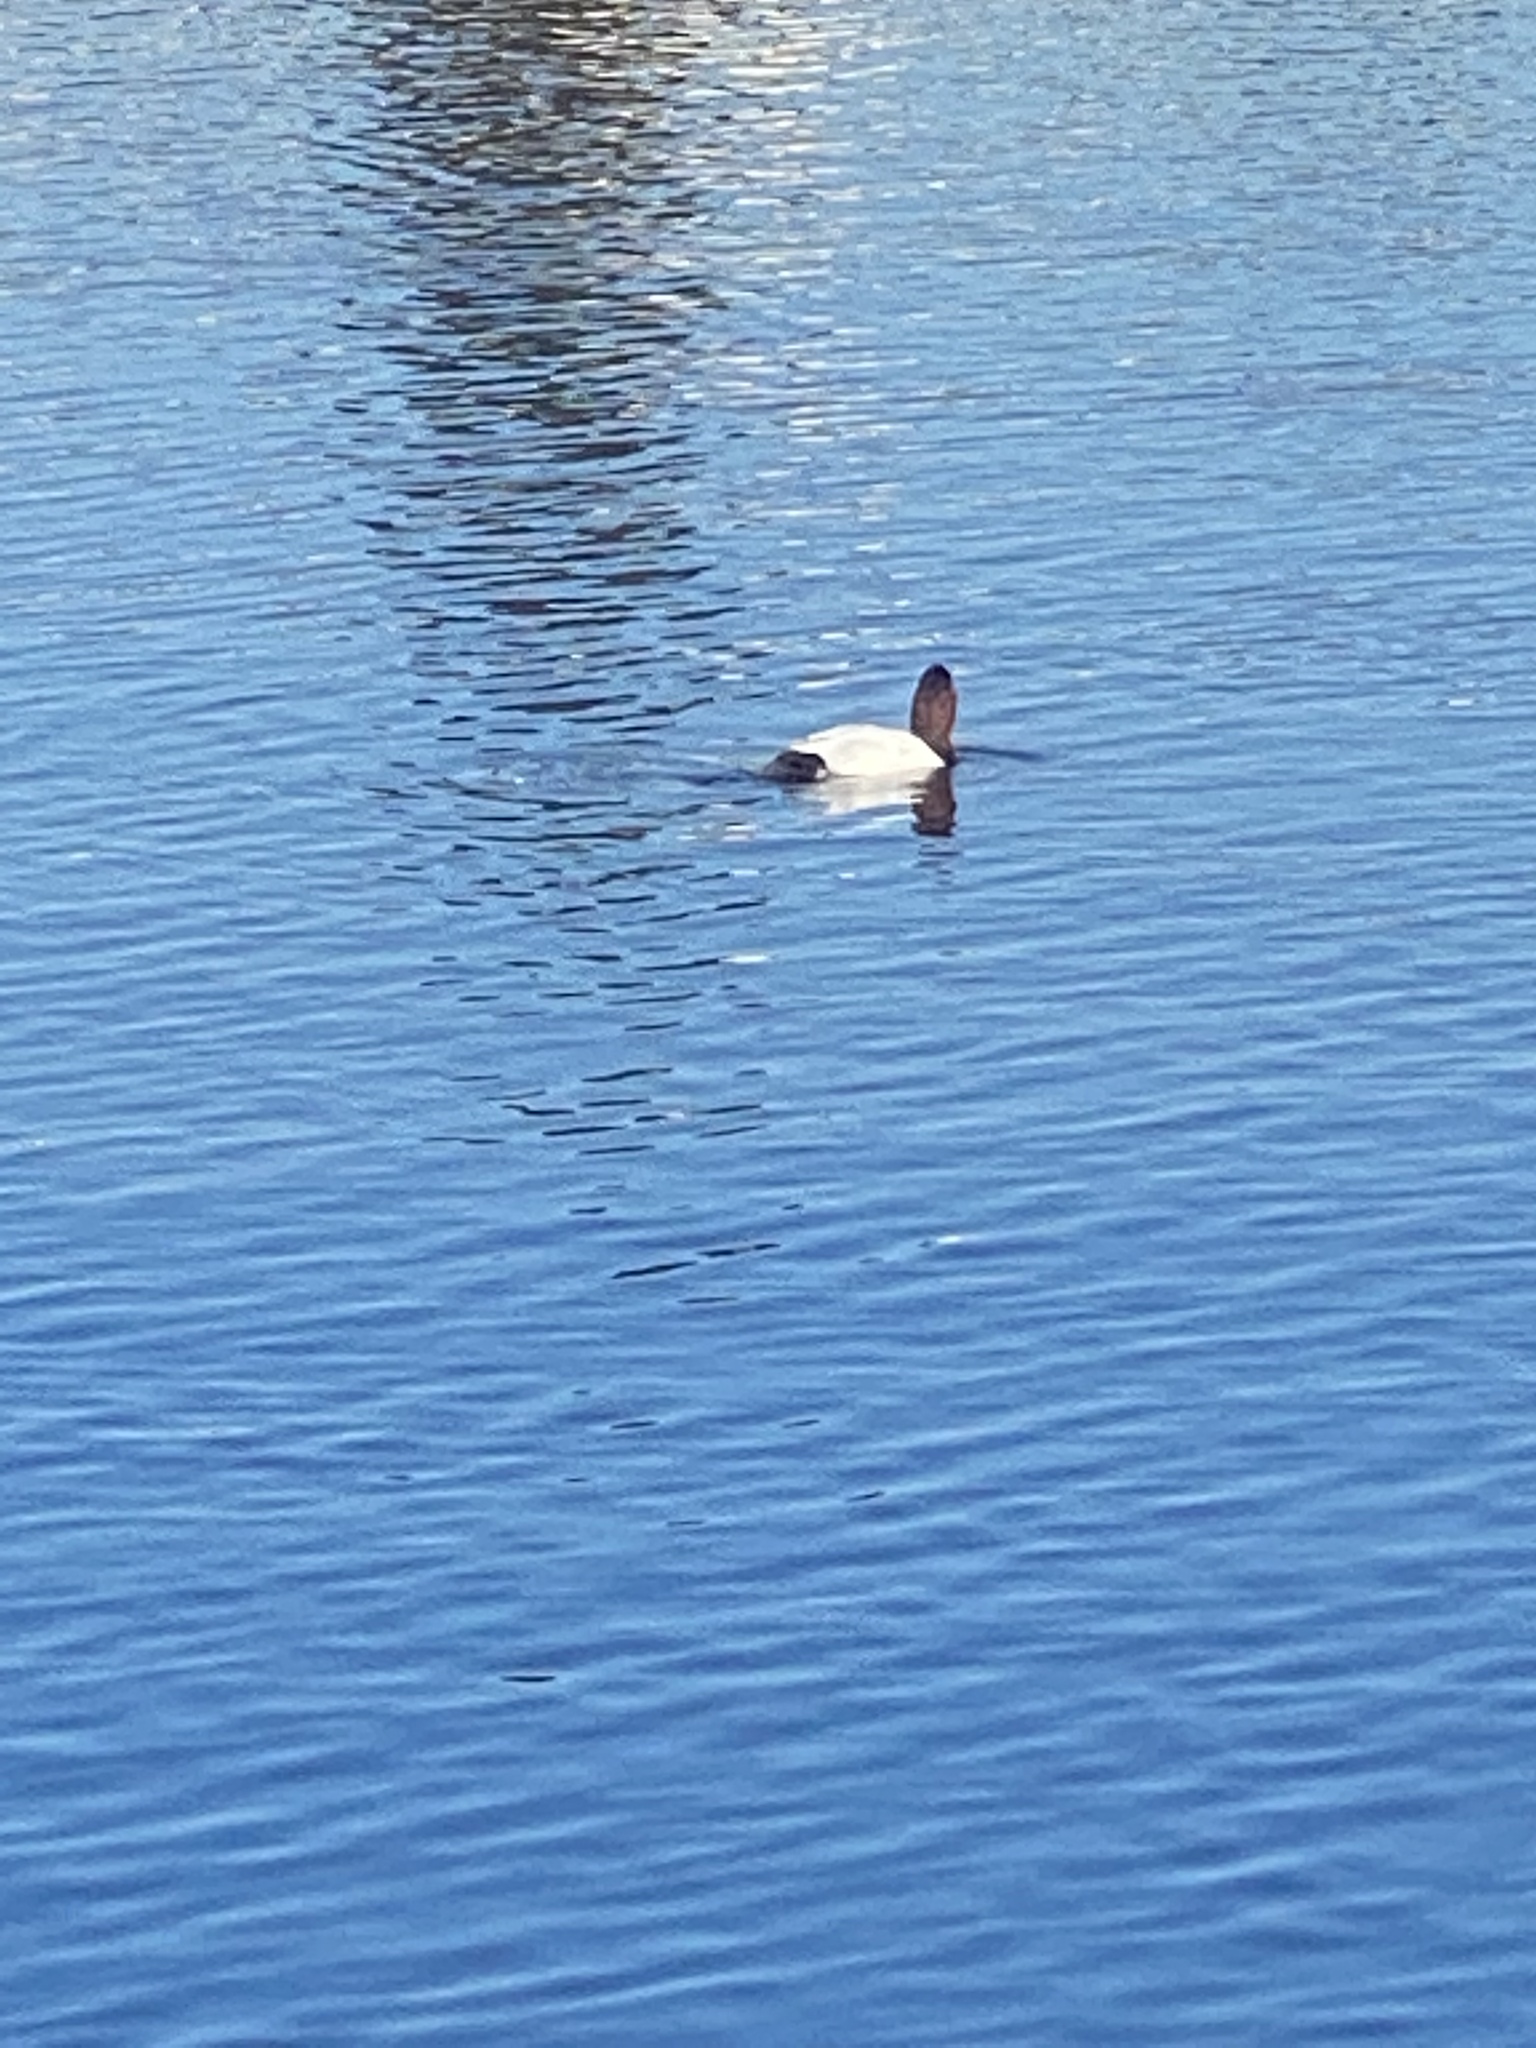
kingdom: Animalia
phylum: Chordata
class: Aves
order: Anseriformes
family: Anatidae
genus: Aythya
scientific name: Aythya valisineria
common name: Canvasback
